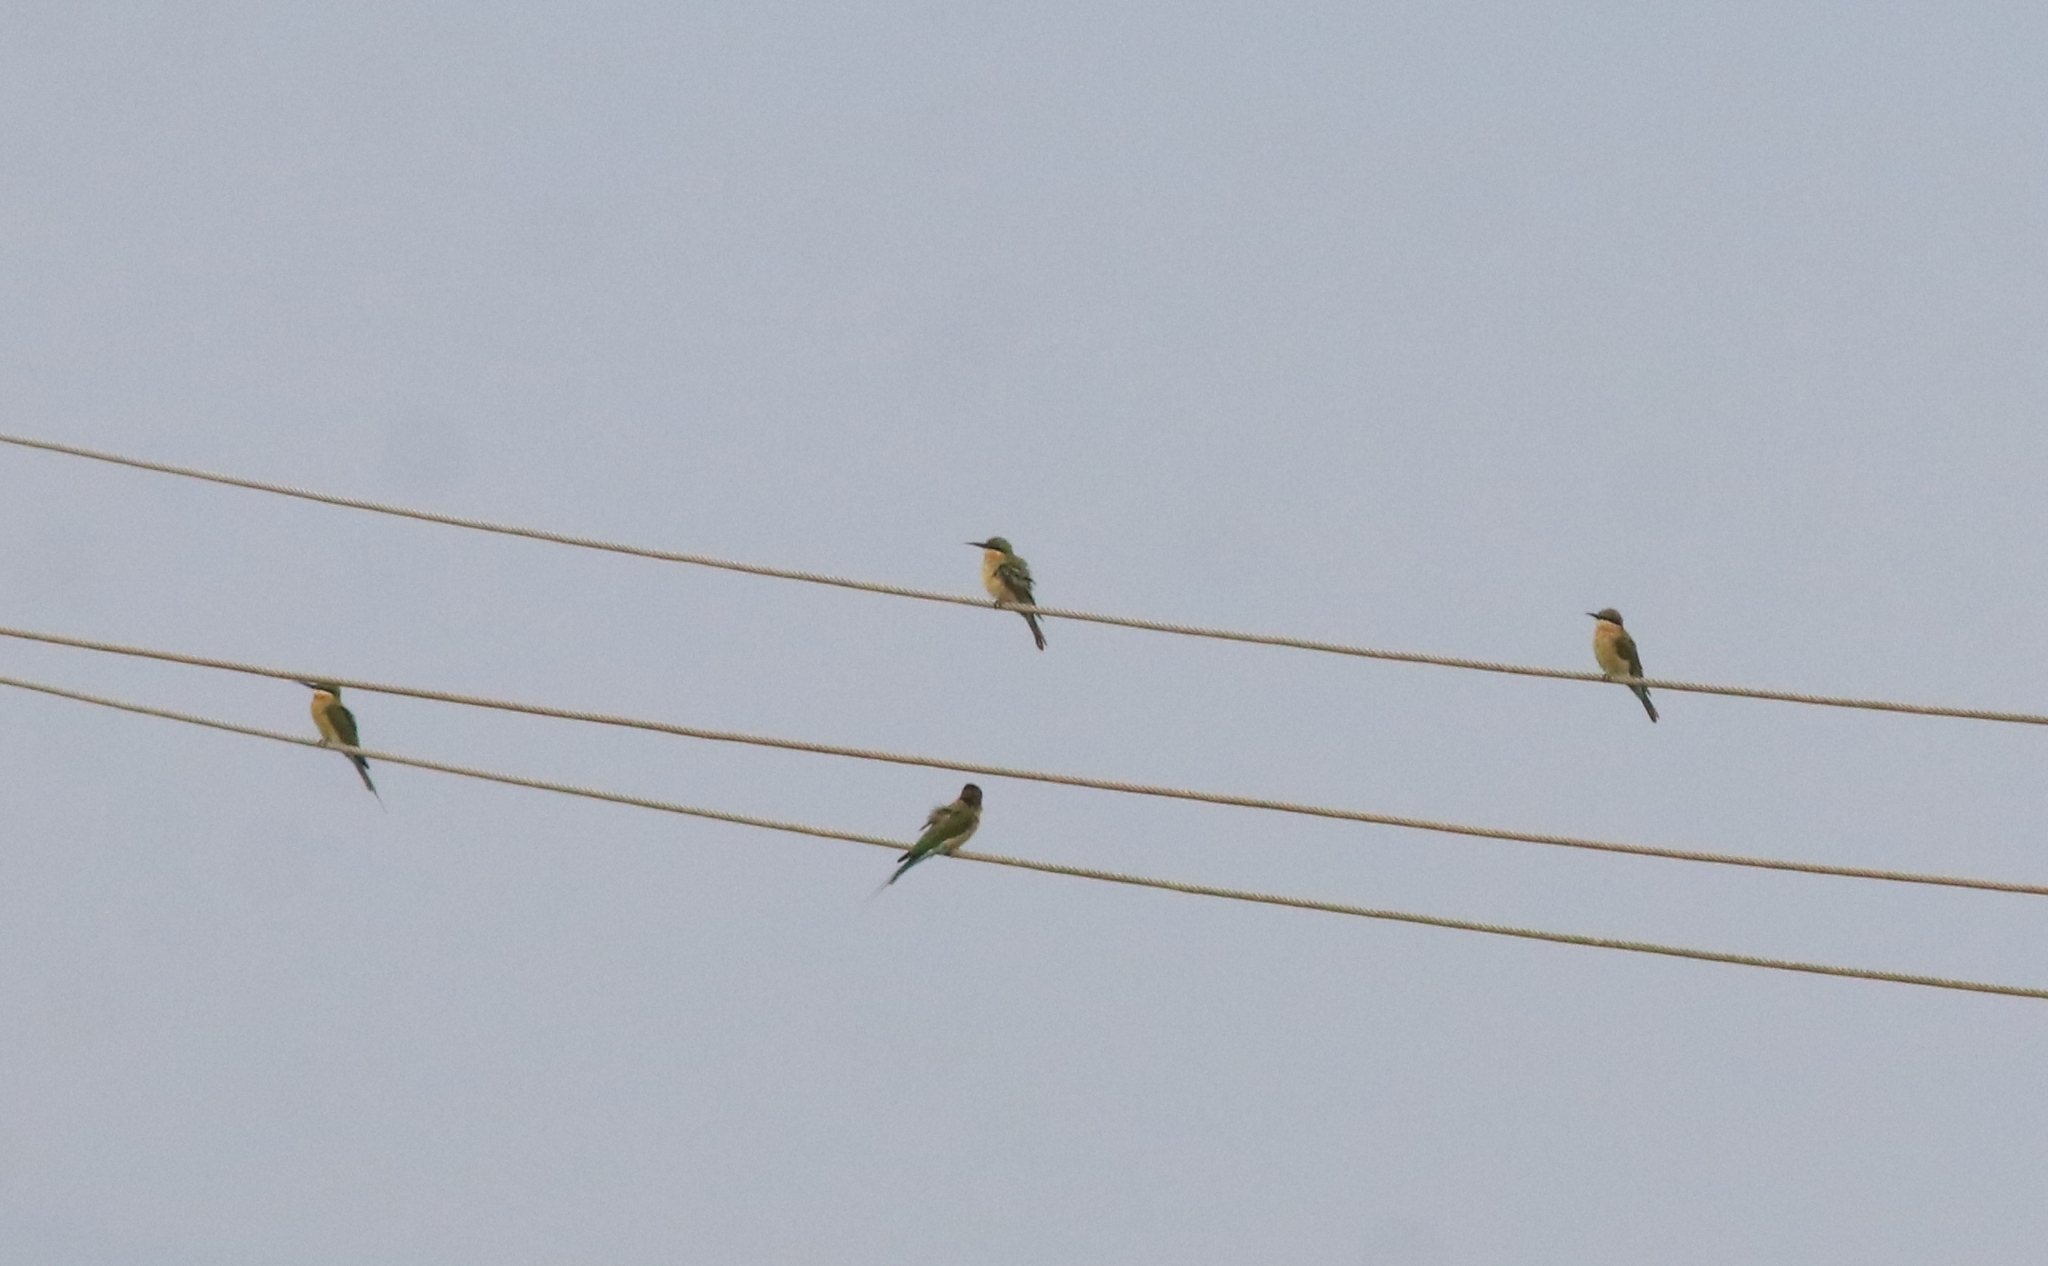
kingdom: Animalia
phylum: Chordata
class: Aves
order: Coraciiformes
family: Meropidae
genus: Merops
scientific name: Merops philippinus
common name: Blue-tailed bee-eater
